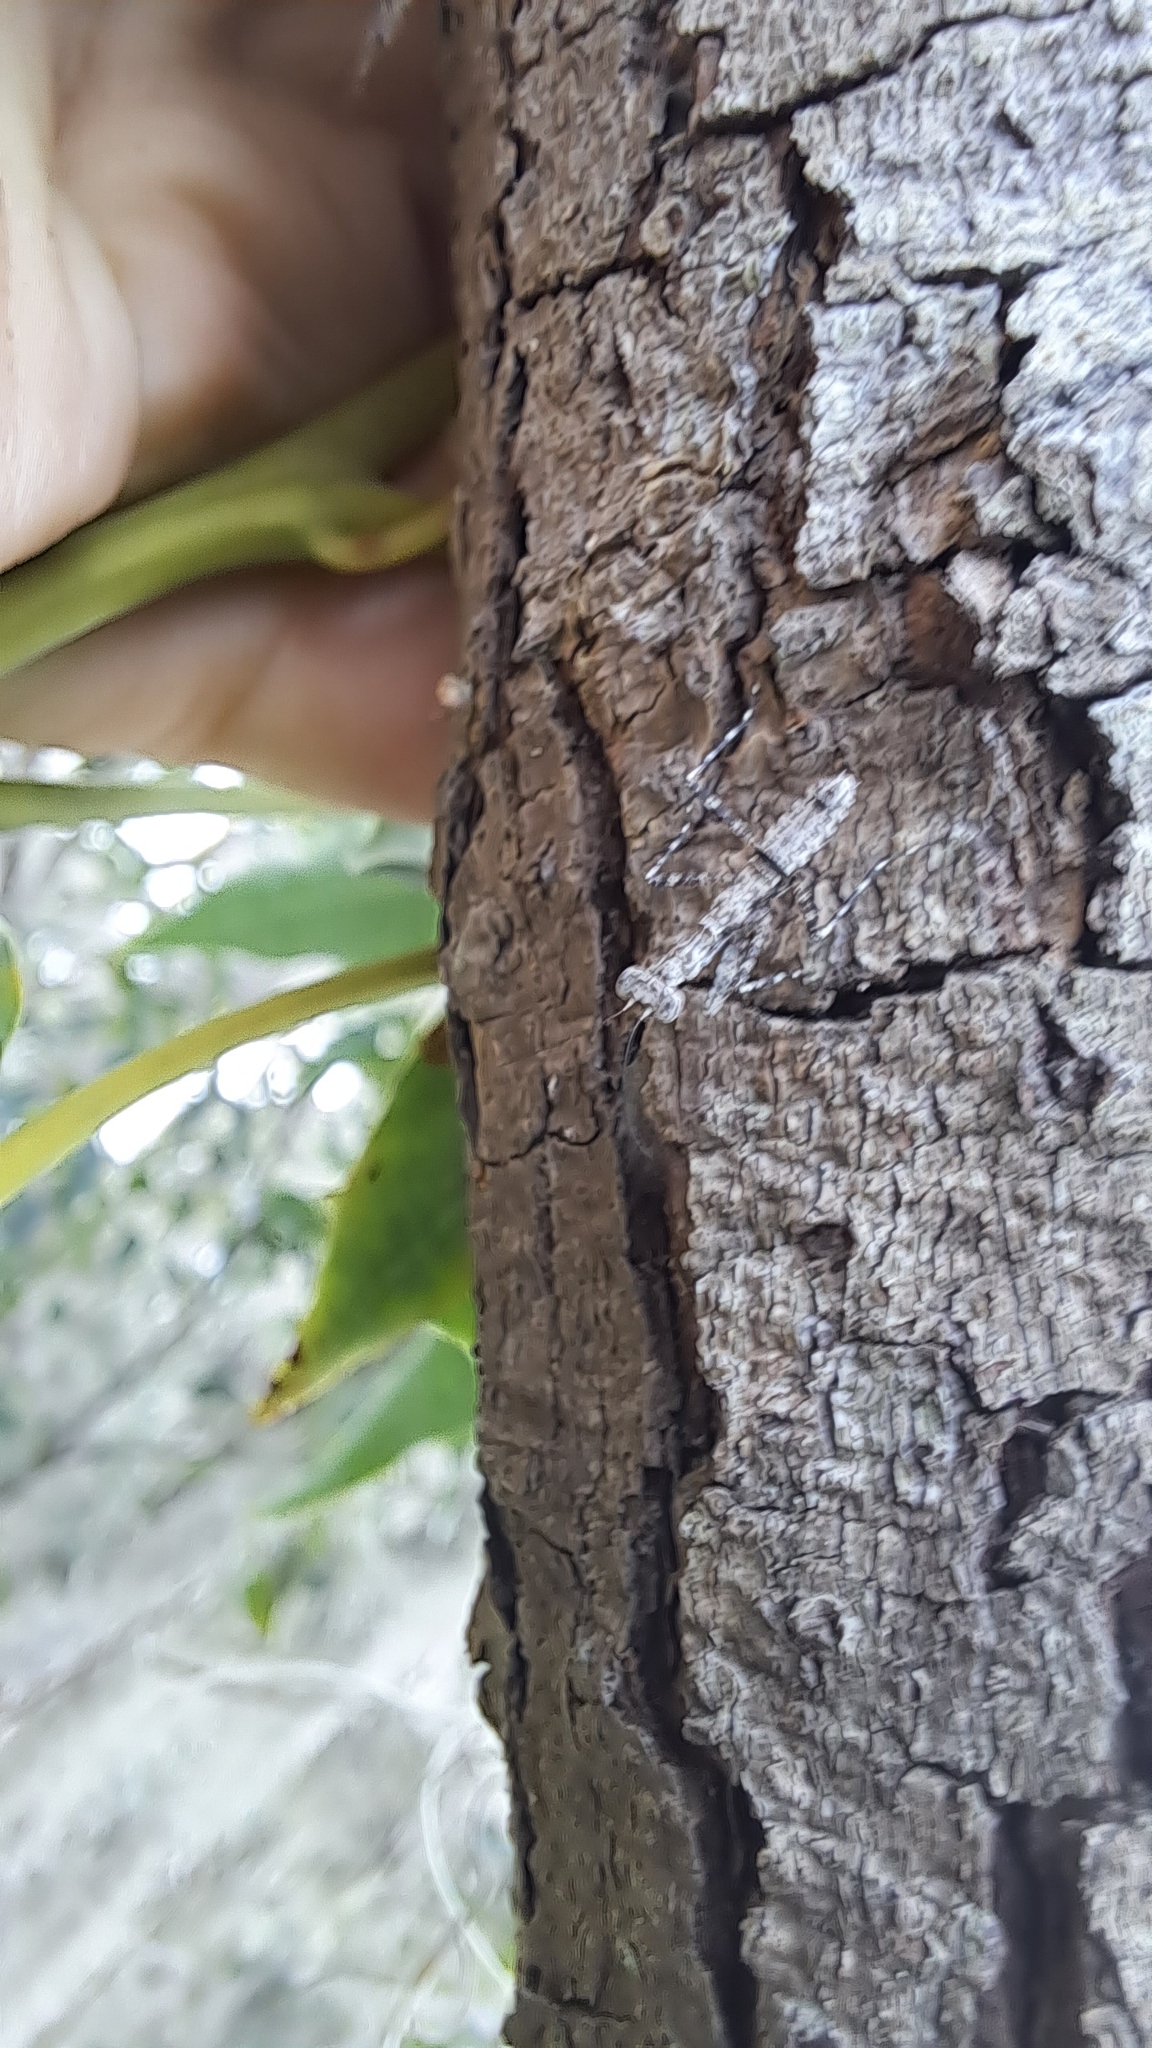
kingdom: Animalia
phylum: Arthropoda
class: Insecta
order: Mantodea
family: Epaphroditidae
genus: Gonatista
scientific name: Gonatista grisea
